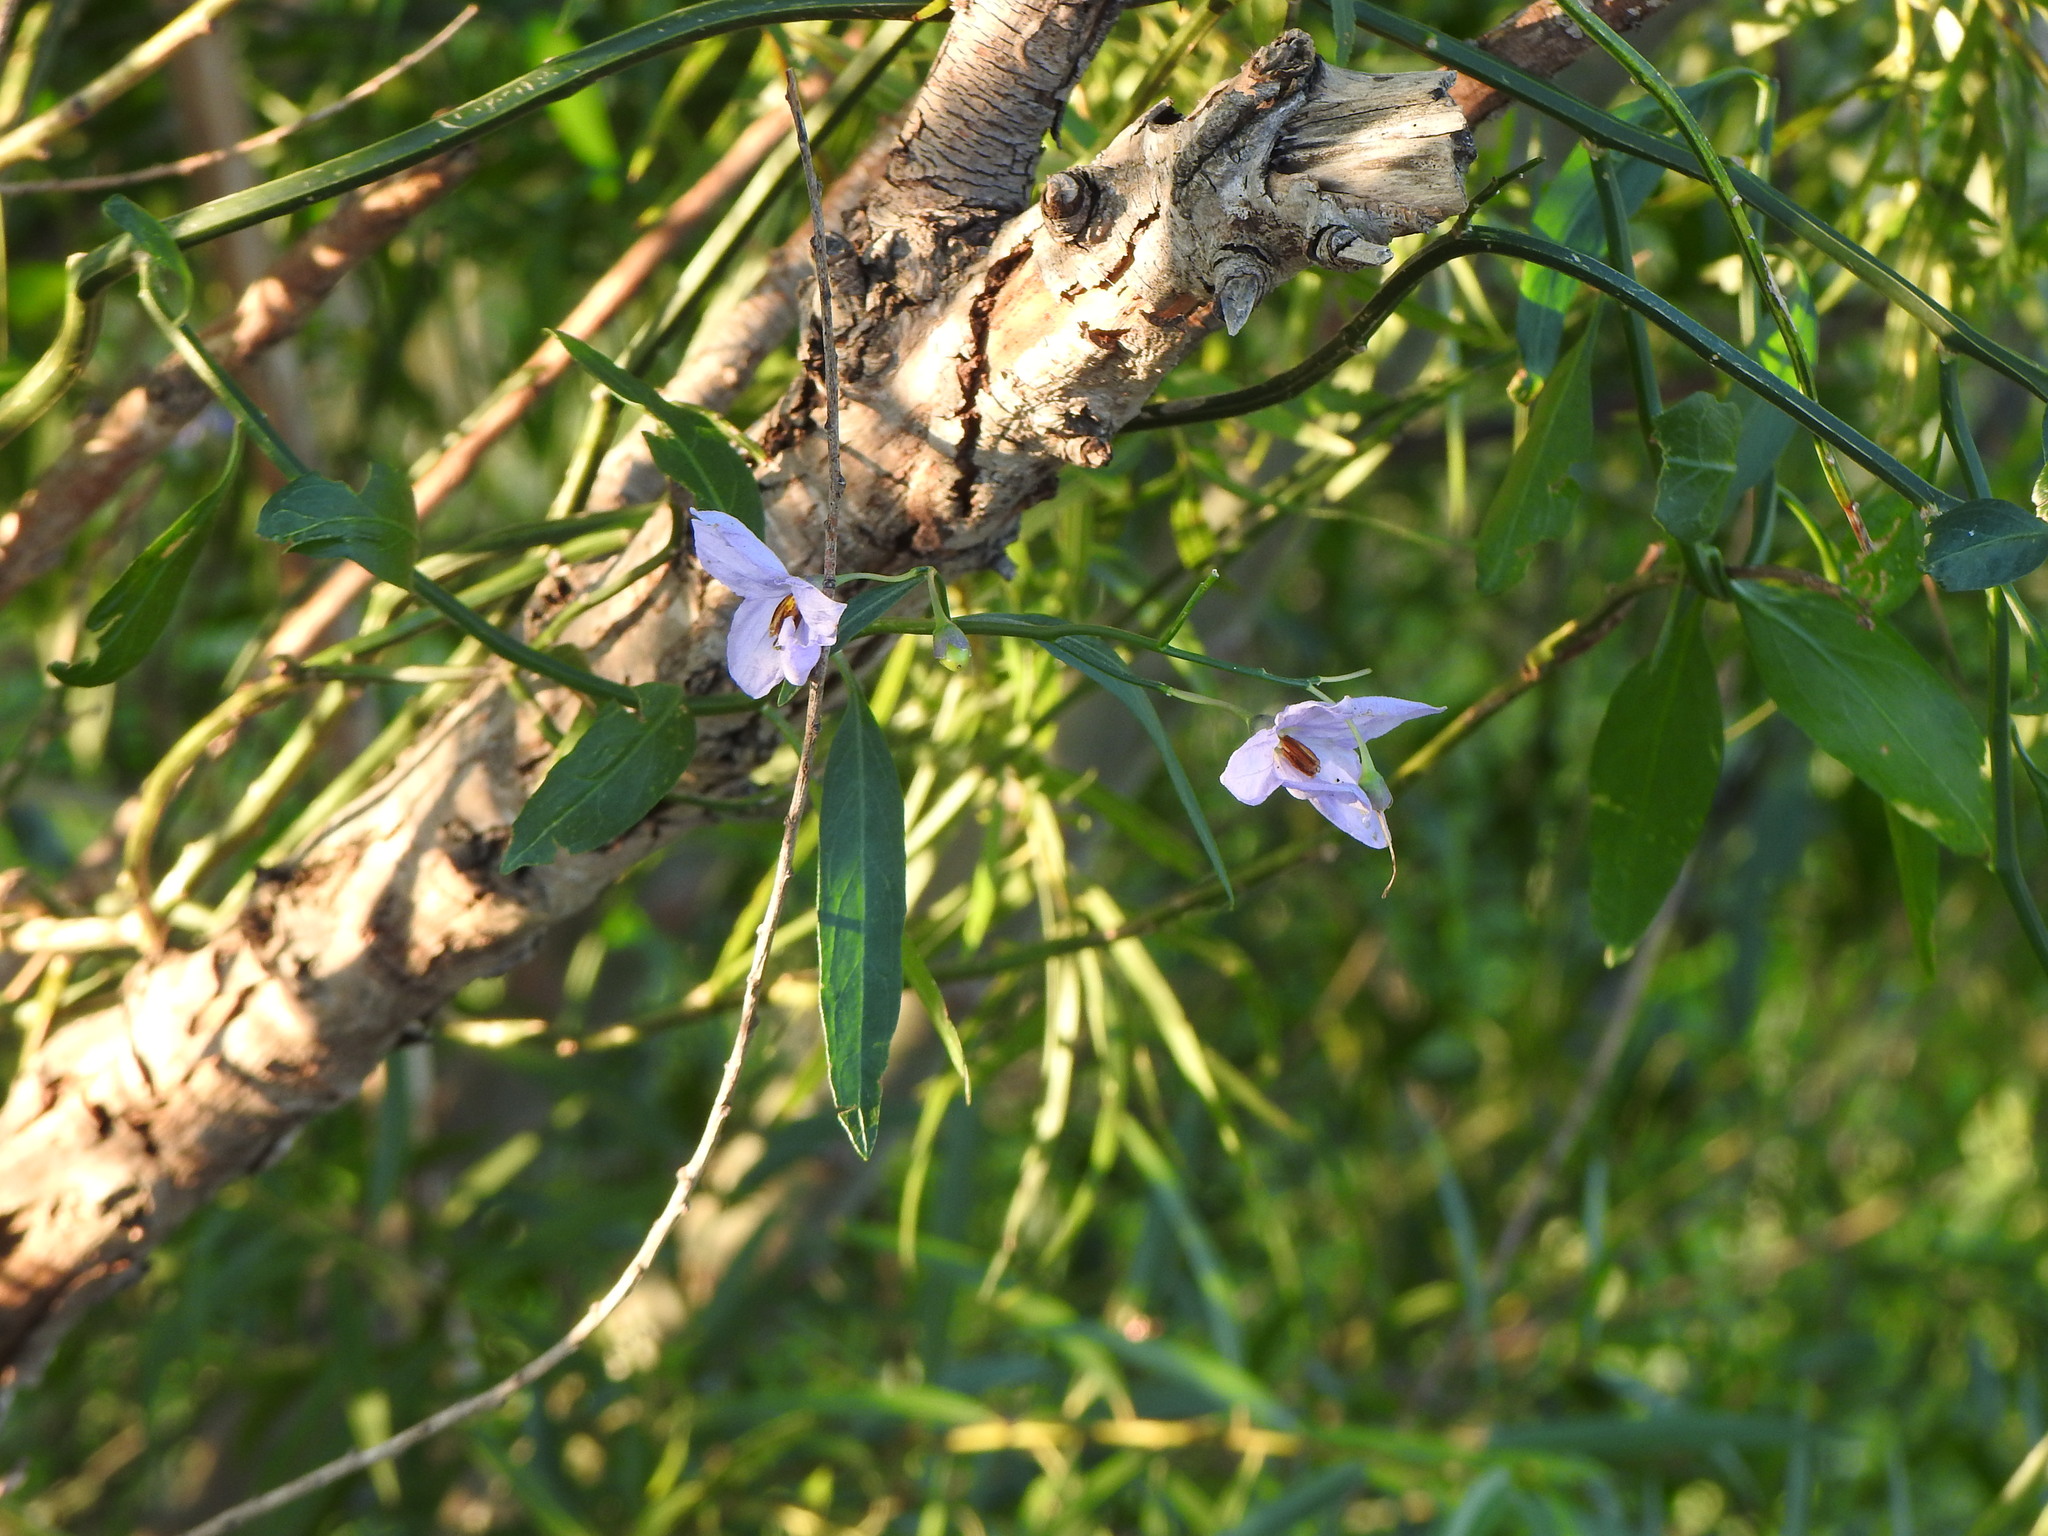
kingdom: Plantae
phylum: Tracheophyta
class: Magnoliopsida
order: Solanales
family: Solanaceae
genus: Solanum
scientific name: Solanum amygdalifolium
